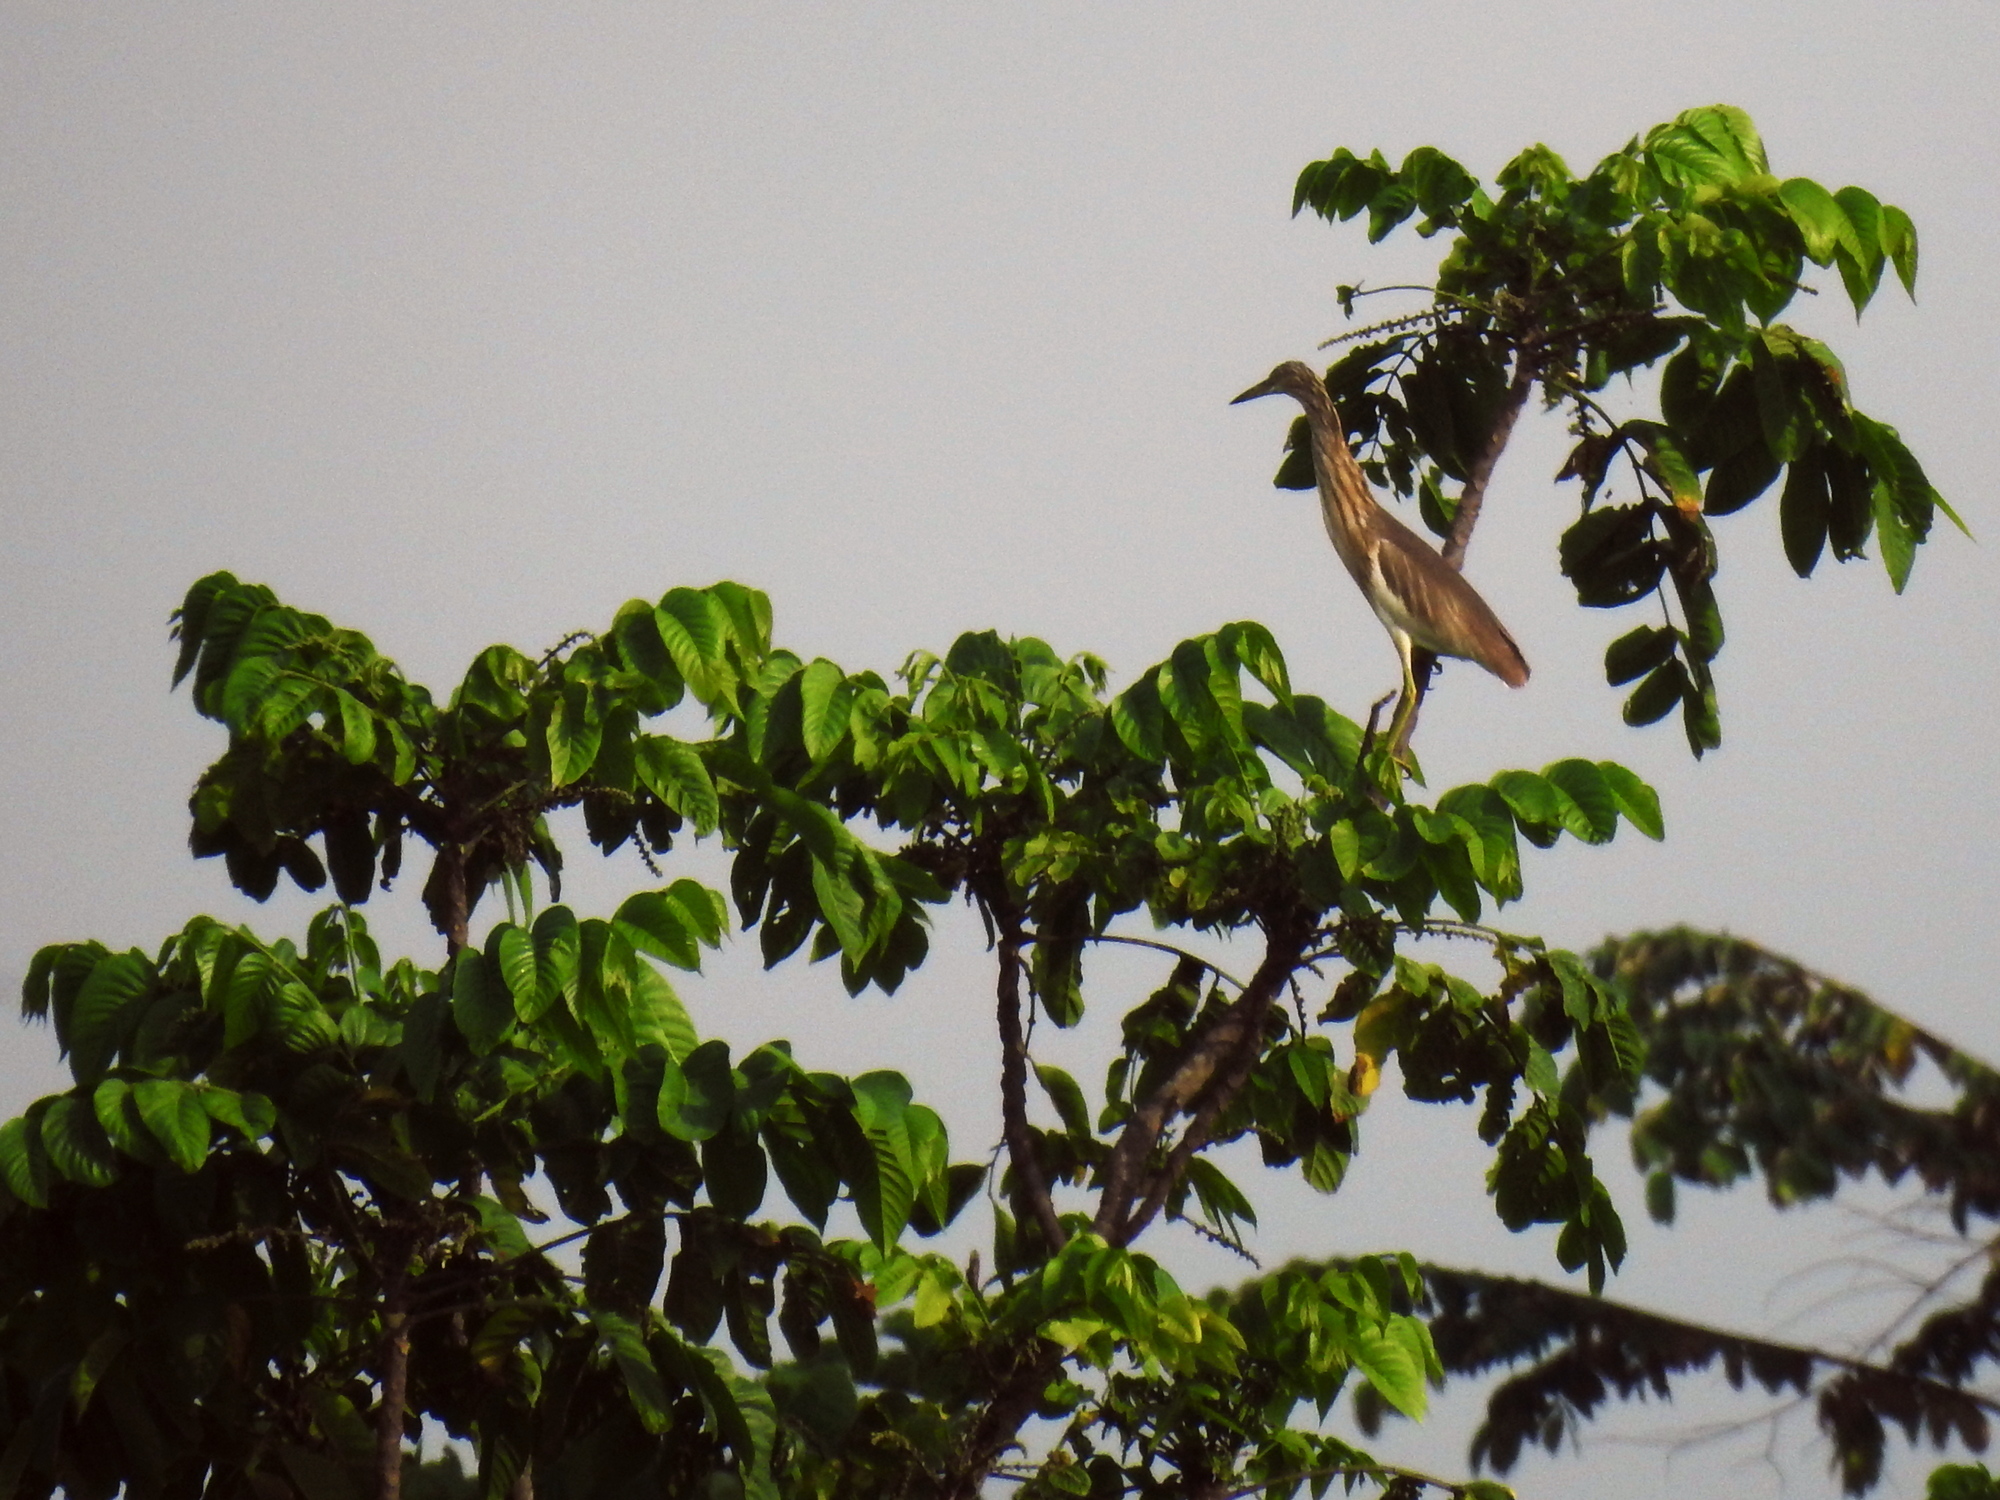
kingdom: Animalia
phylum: Chordata
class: Aves
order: Pelecaniformes
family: Ardeidae
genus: Ardeola
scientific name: Ardeola speciosa
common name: Javan pond heron
